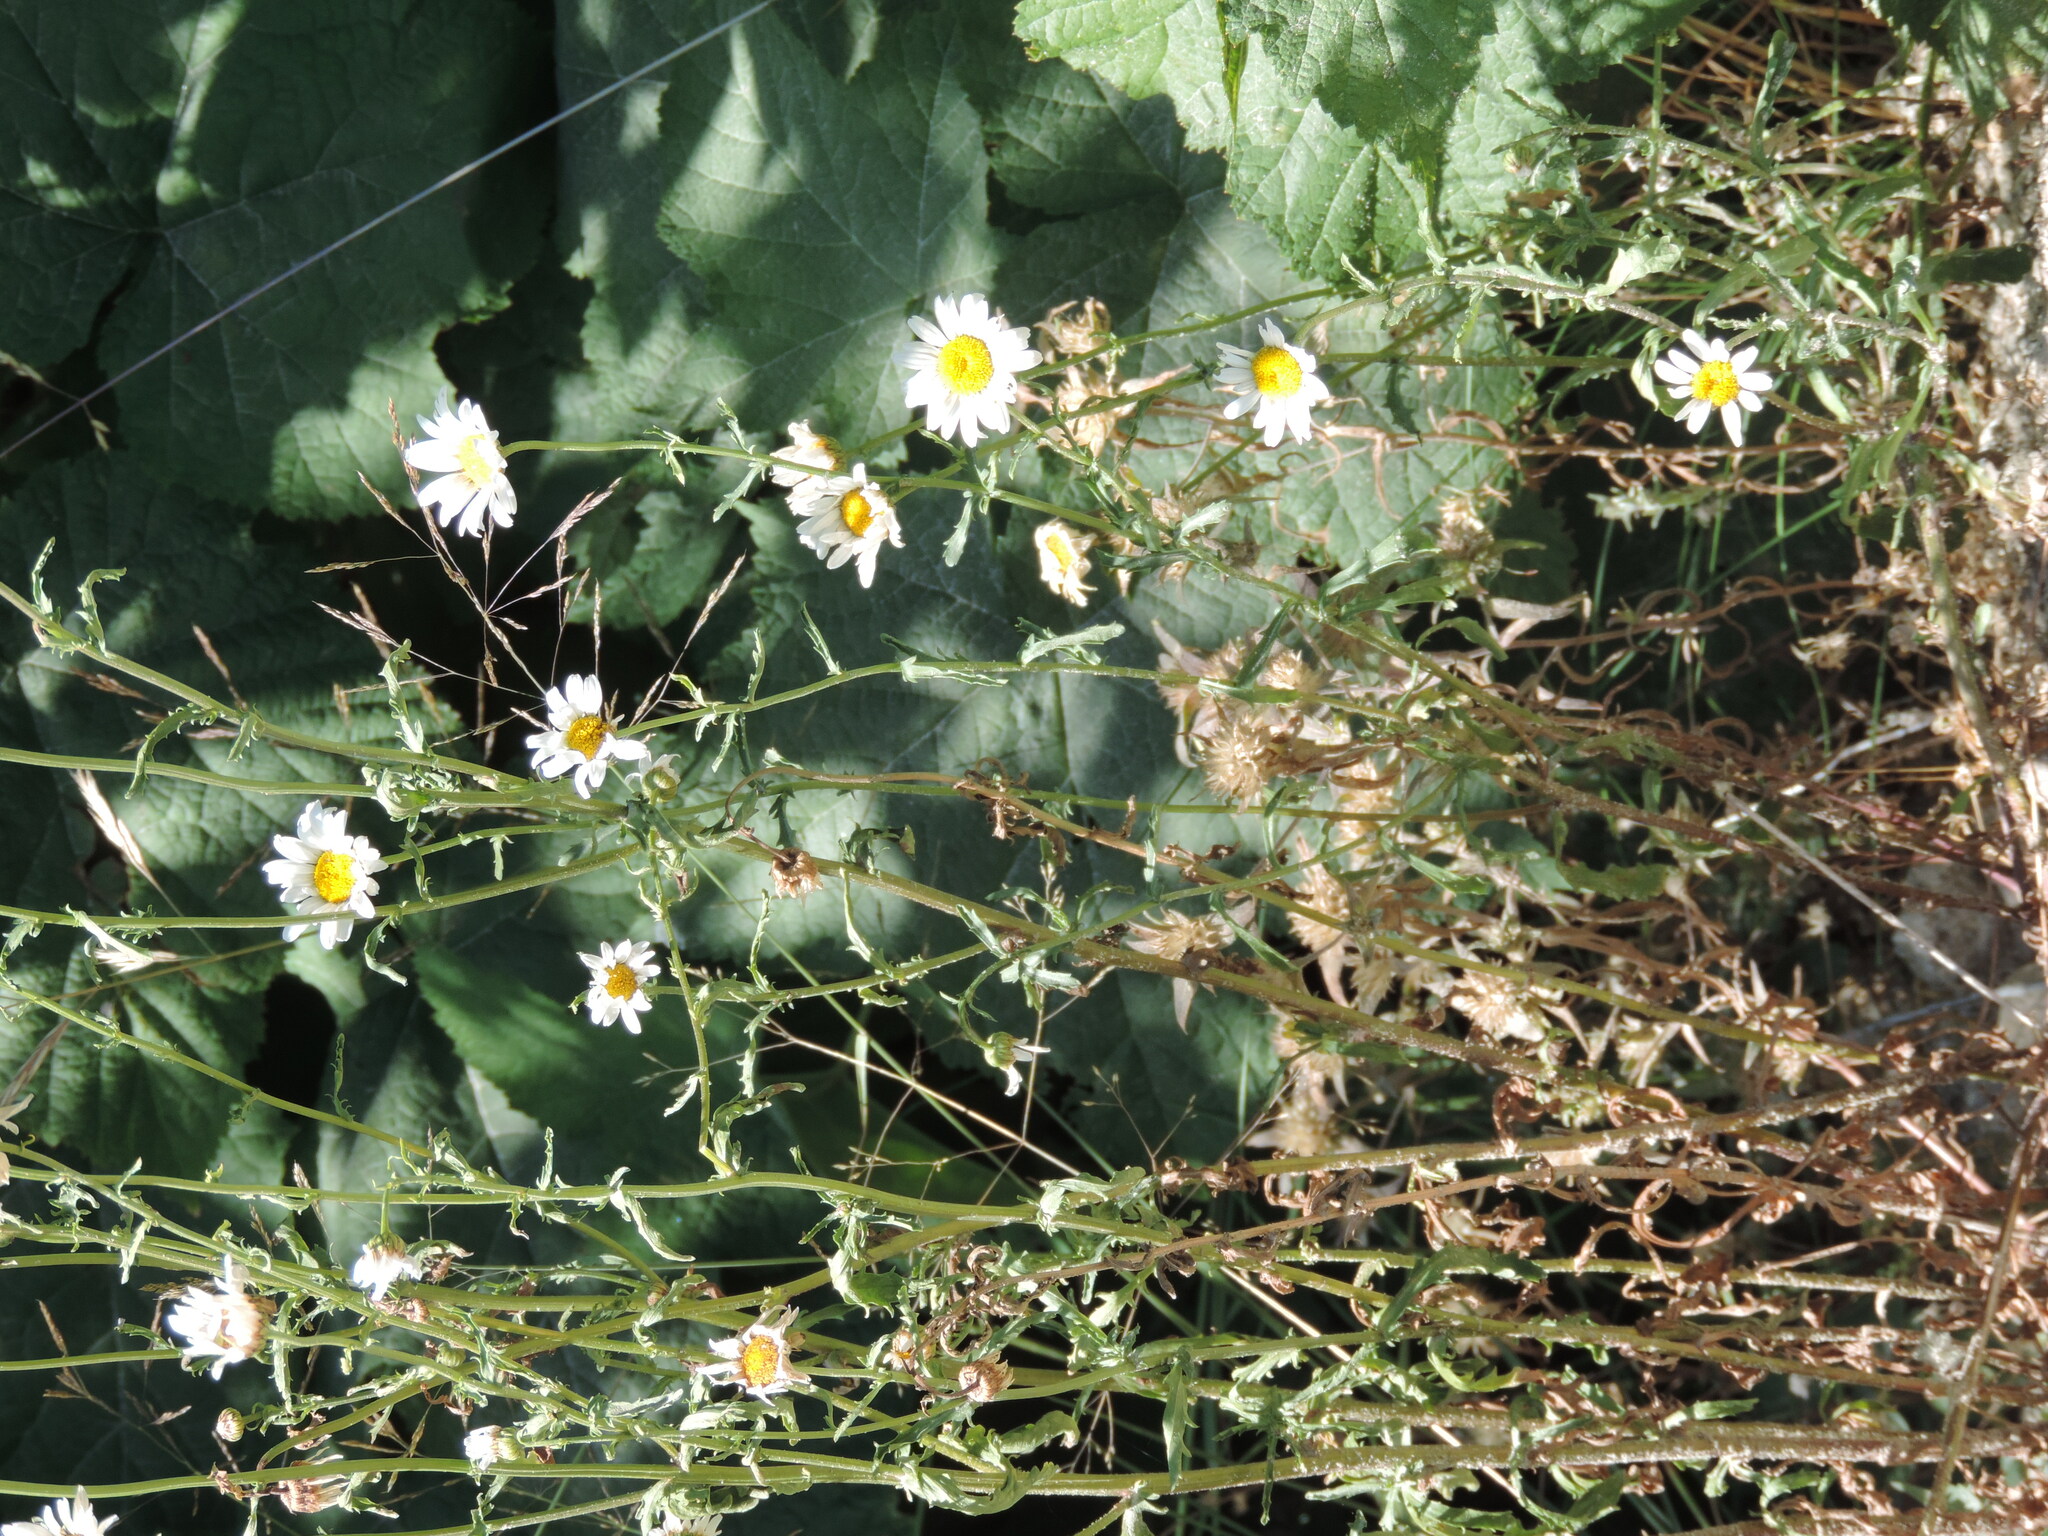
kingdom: Plantae
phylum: Tracheophyta
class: Magnoliopsida
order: Asterales
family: Asteraceae
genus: Leucanthemum
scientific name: Leucanthemum vulgare
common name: Oxeye daisy
